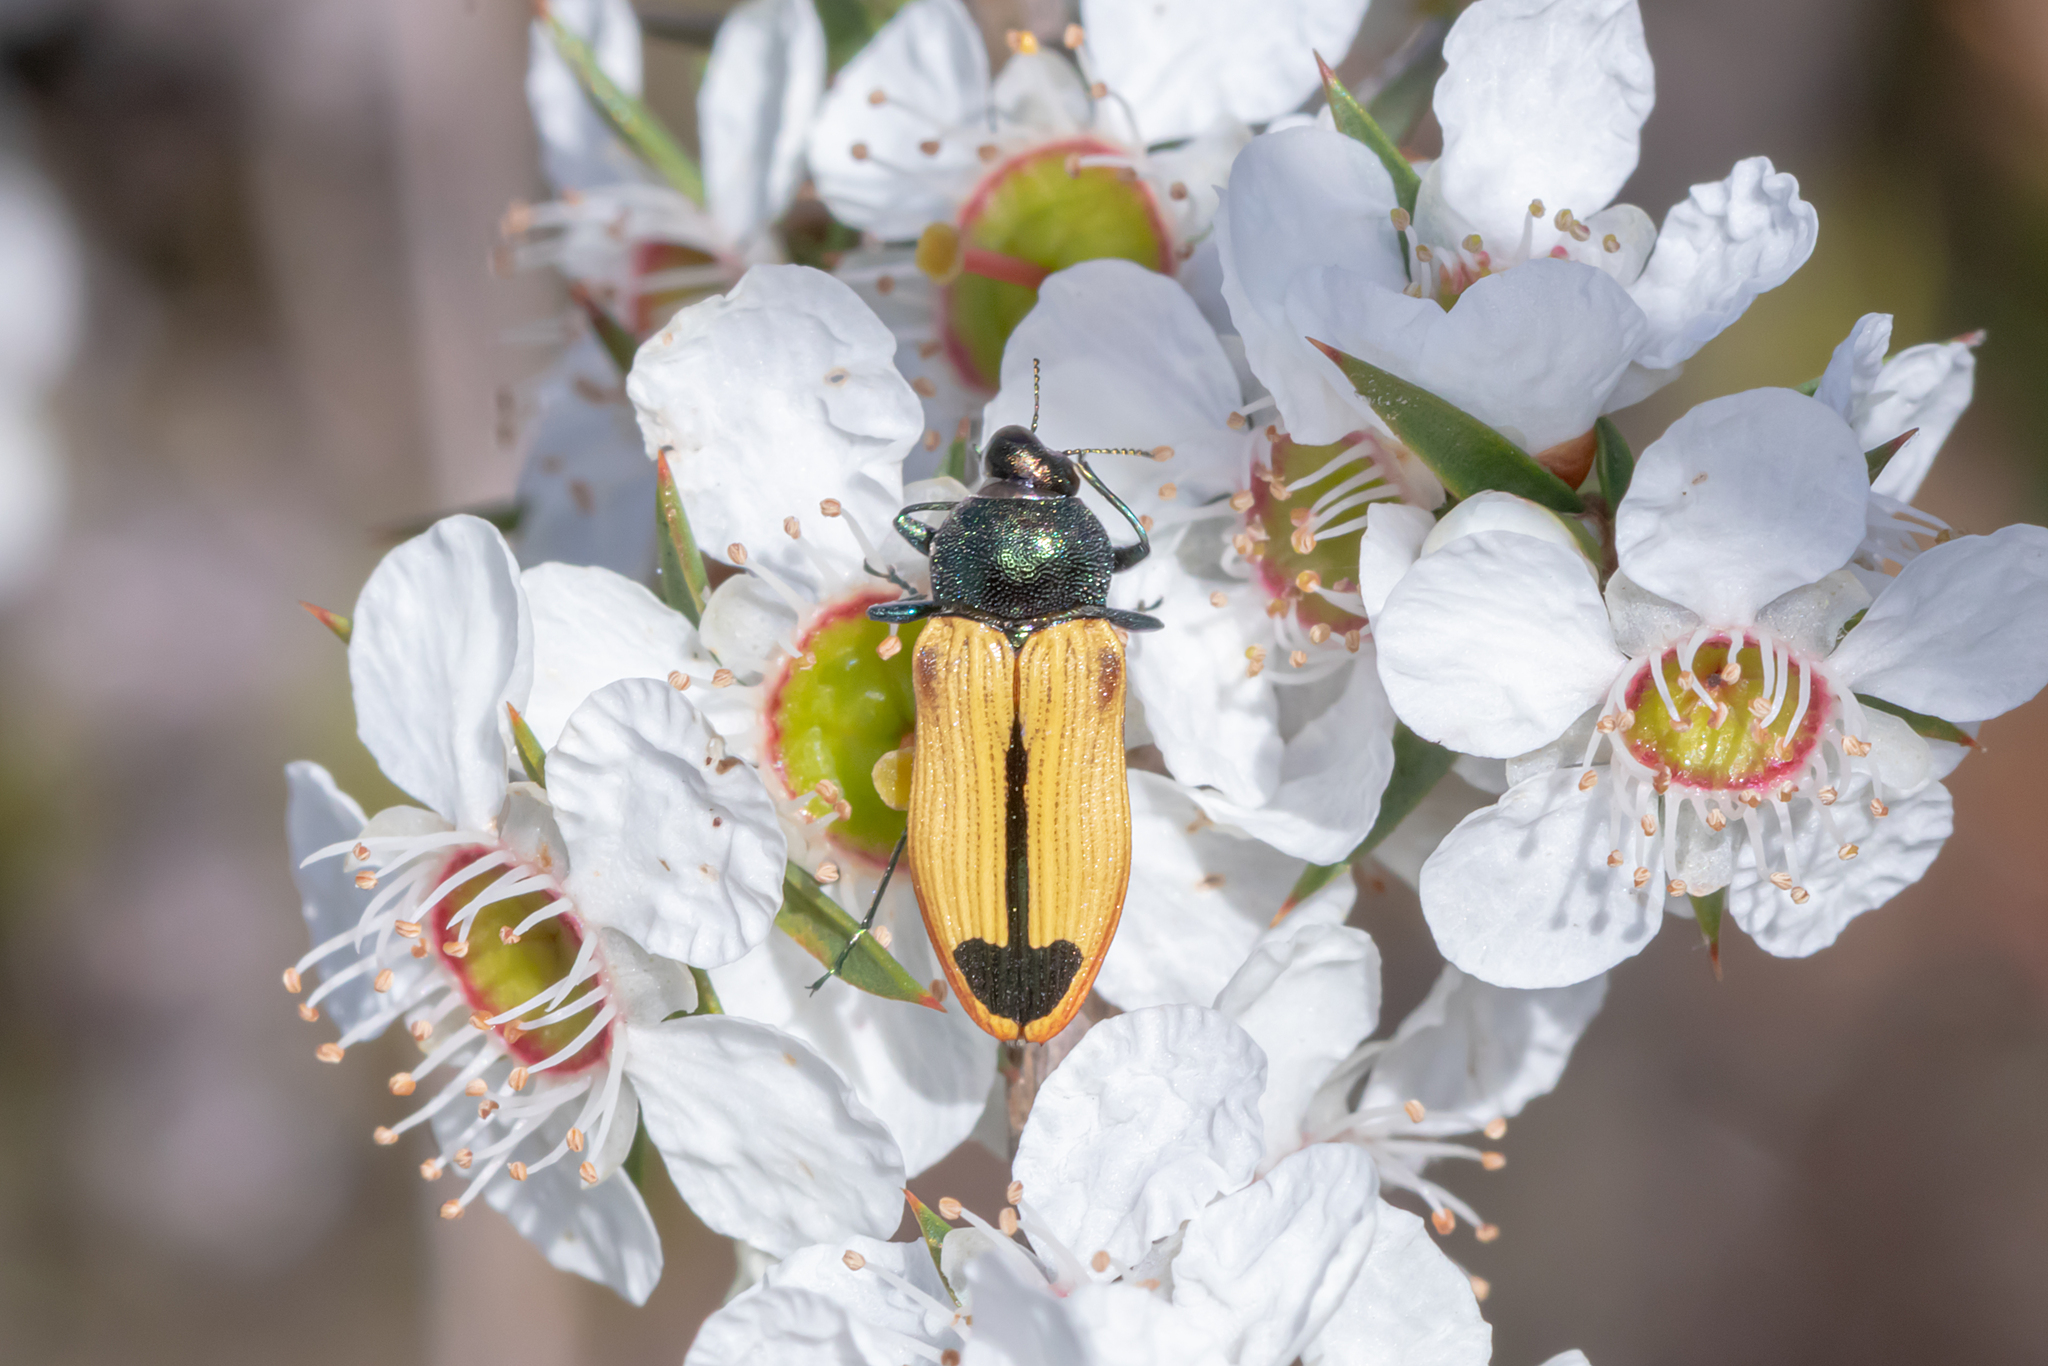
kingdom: Animalia
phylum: Arthropoda
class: Insecta
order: Coleoptera
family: Buprestidae
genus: Castiarina
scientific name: Castiarina fossoria
